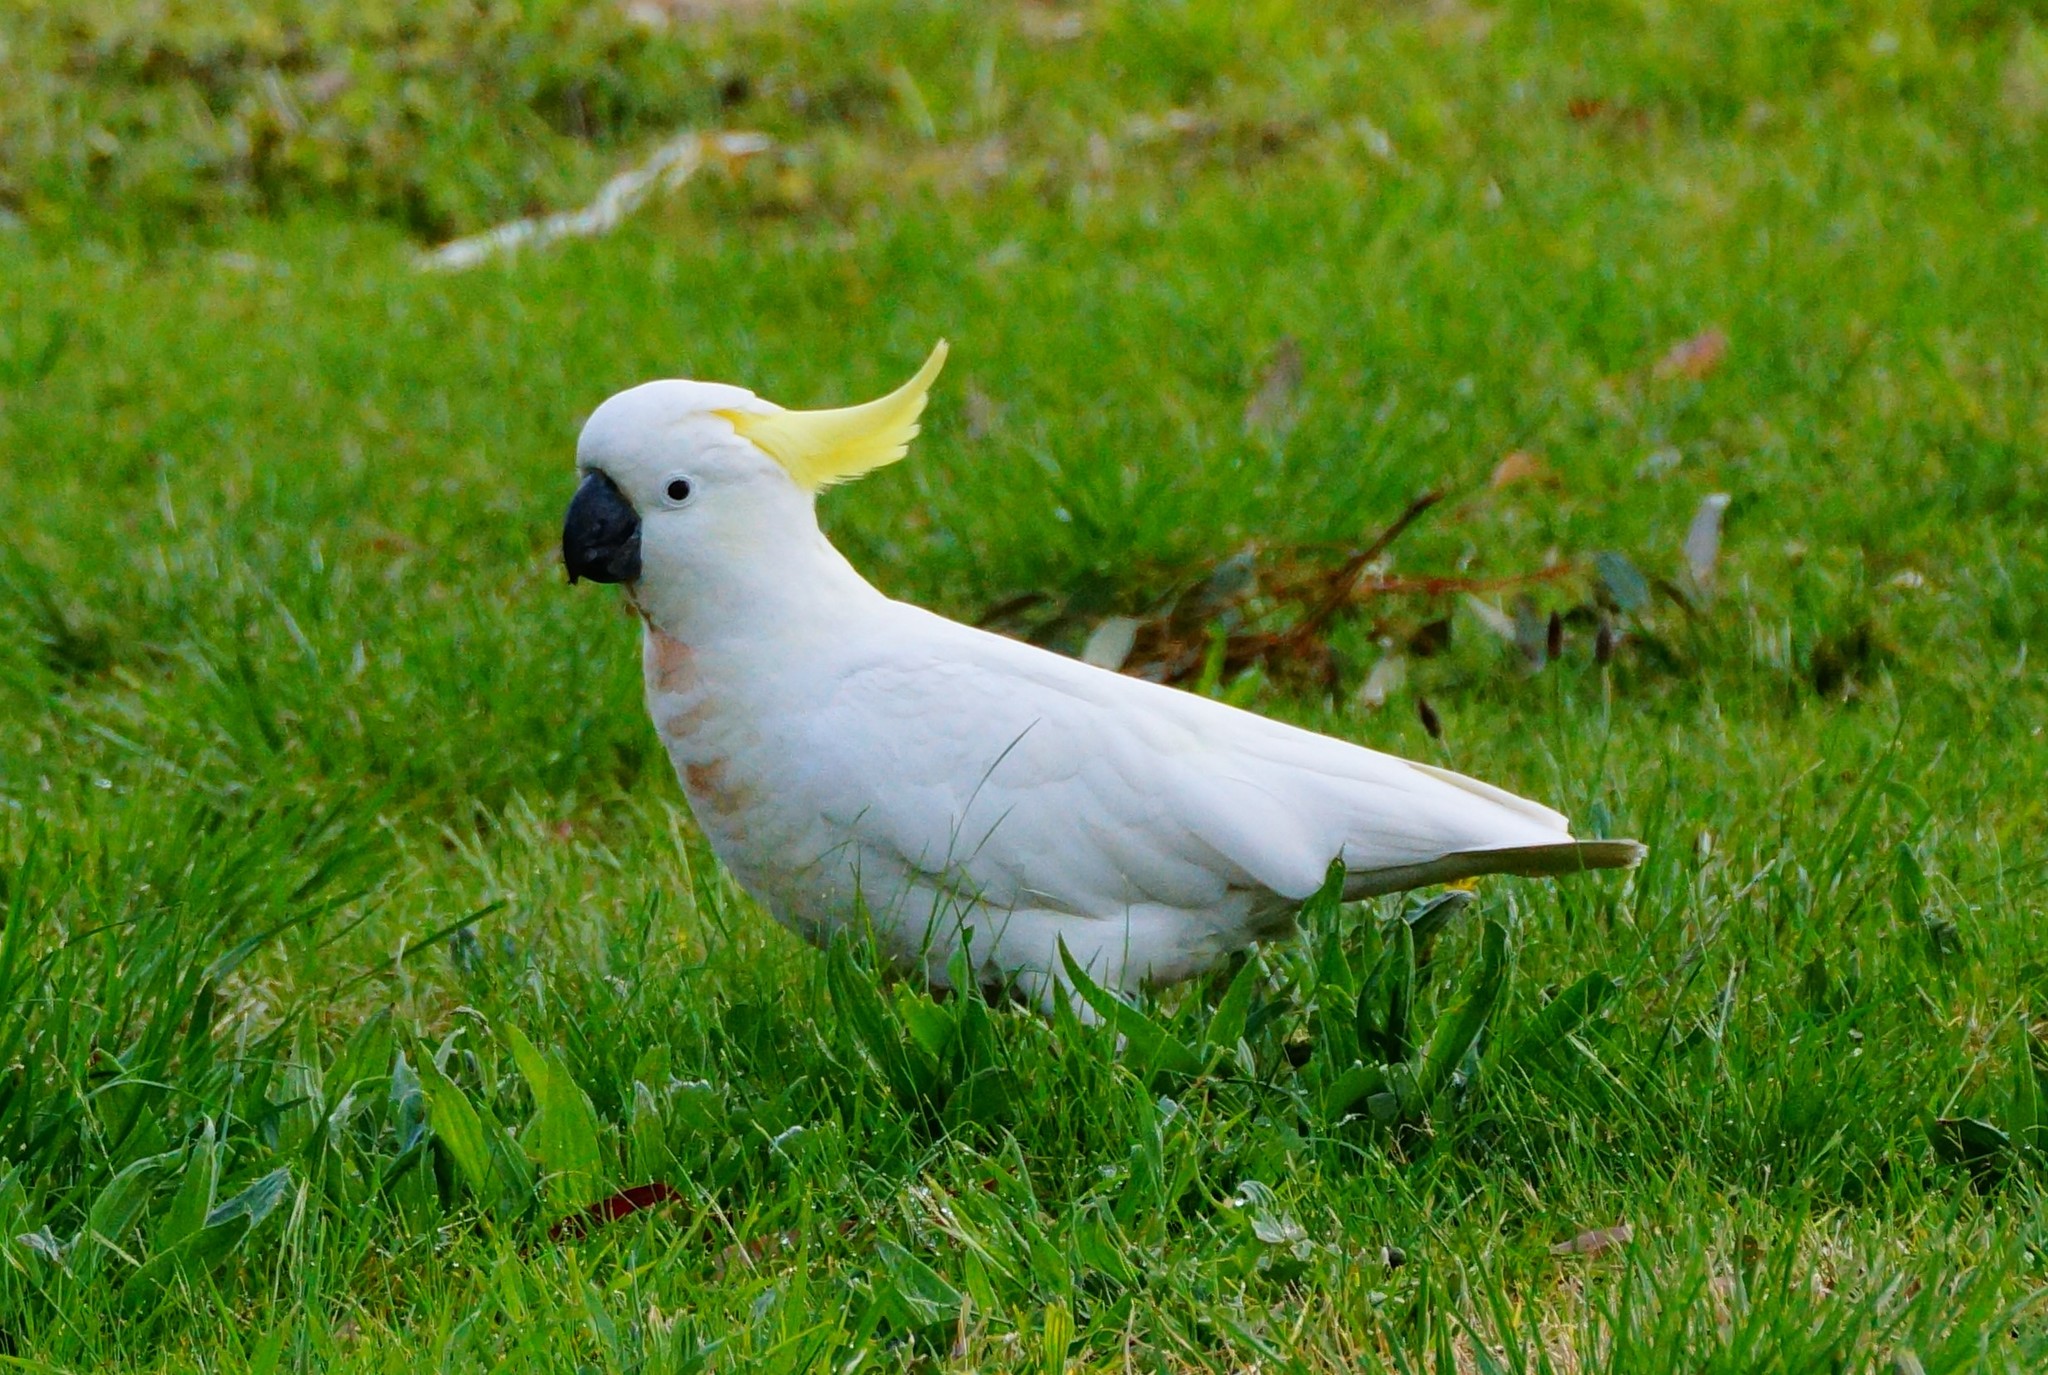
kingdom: Animalia
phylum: Chordata
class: Aves
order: Psittaciformes
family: Psittacidae
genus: Cacatua
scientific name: Cacatua galerita
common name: Sulphur-crested cockatoo
